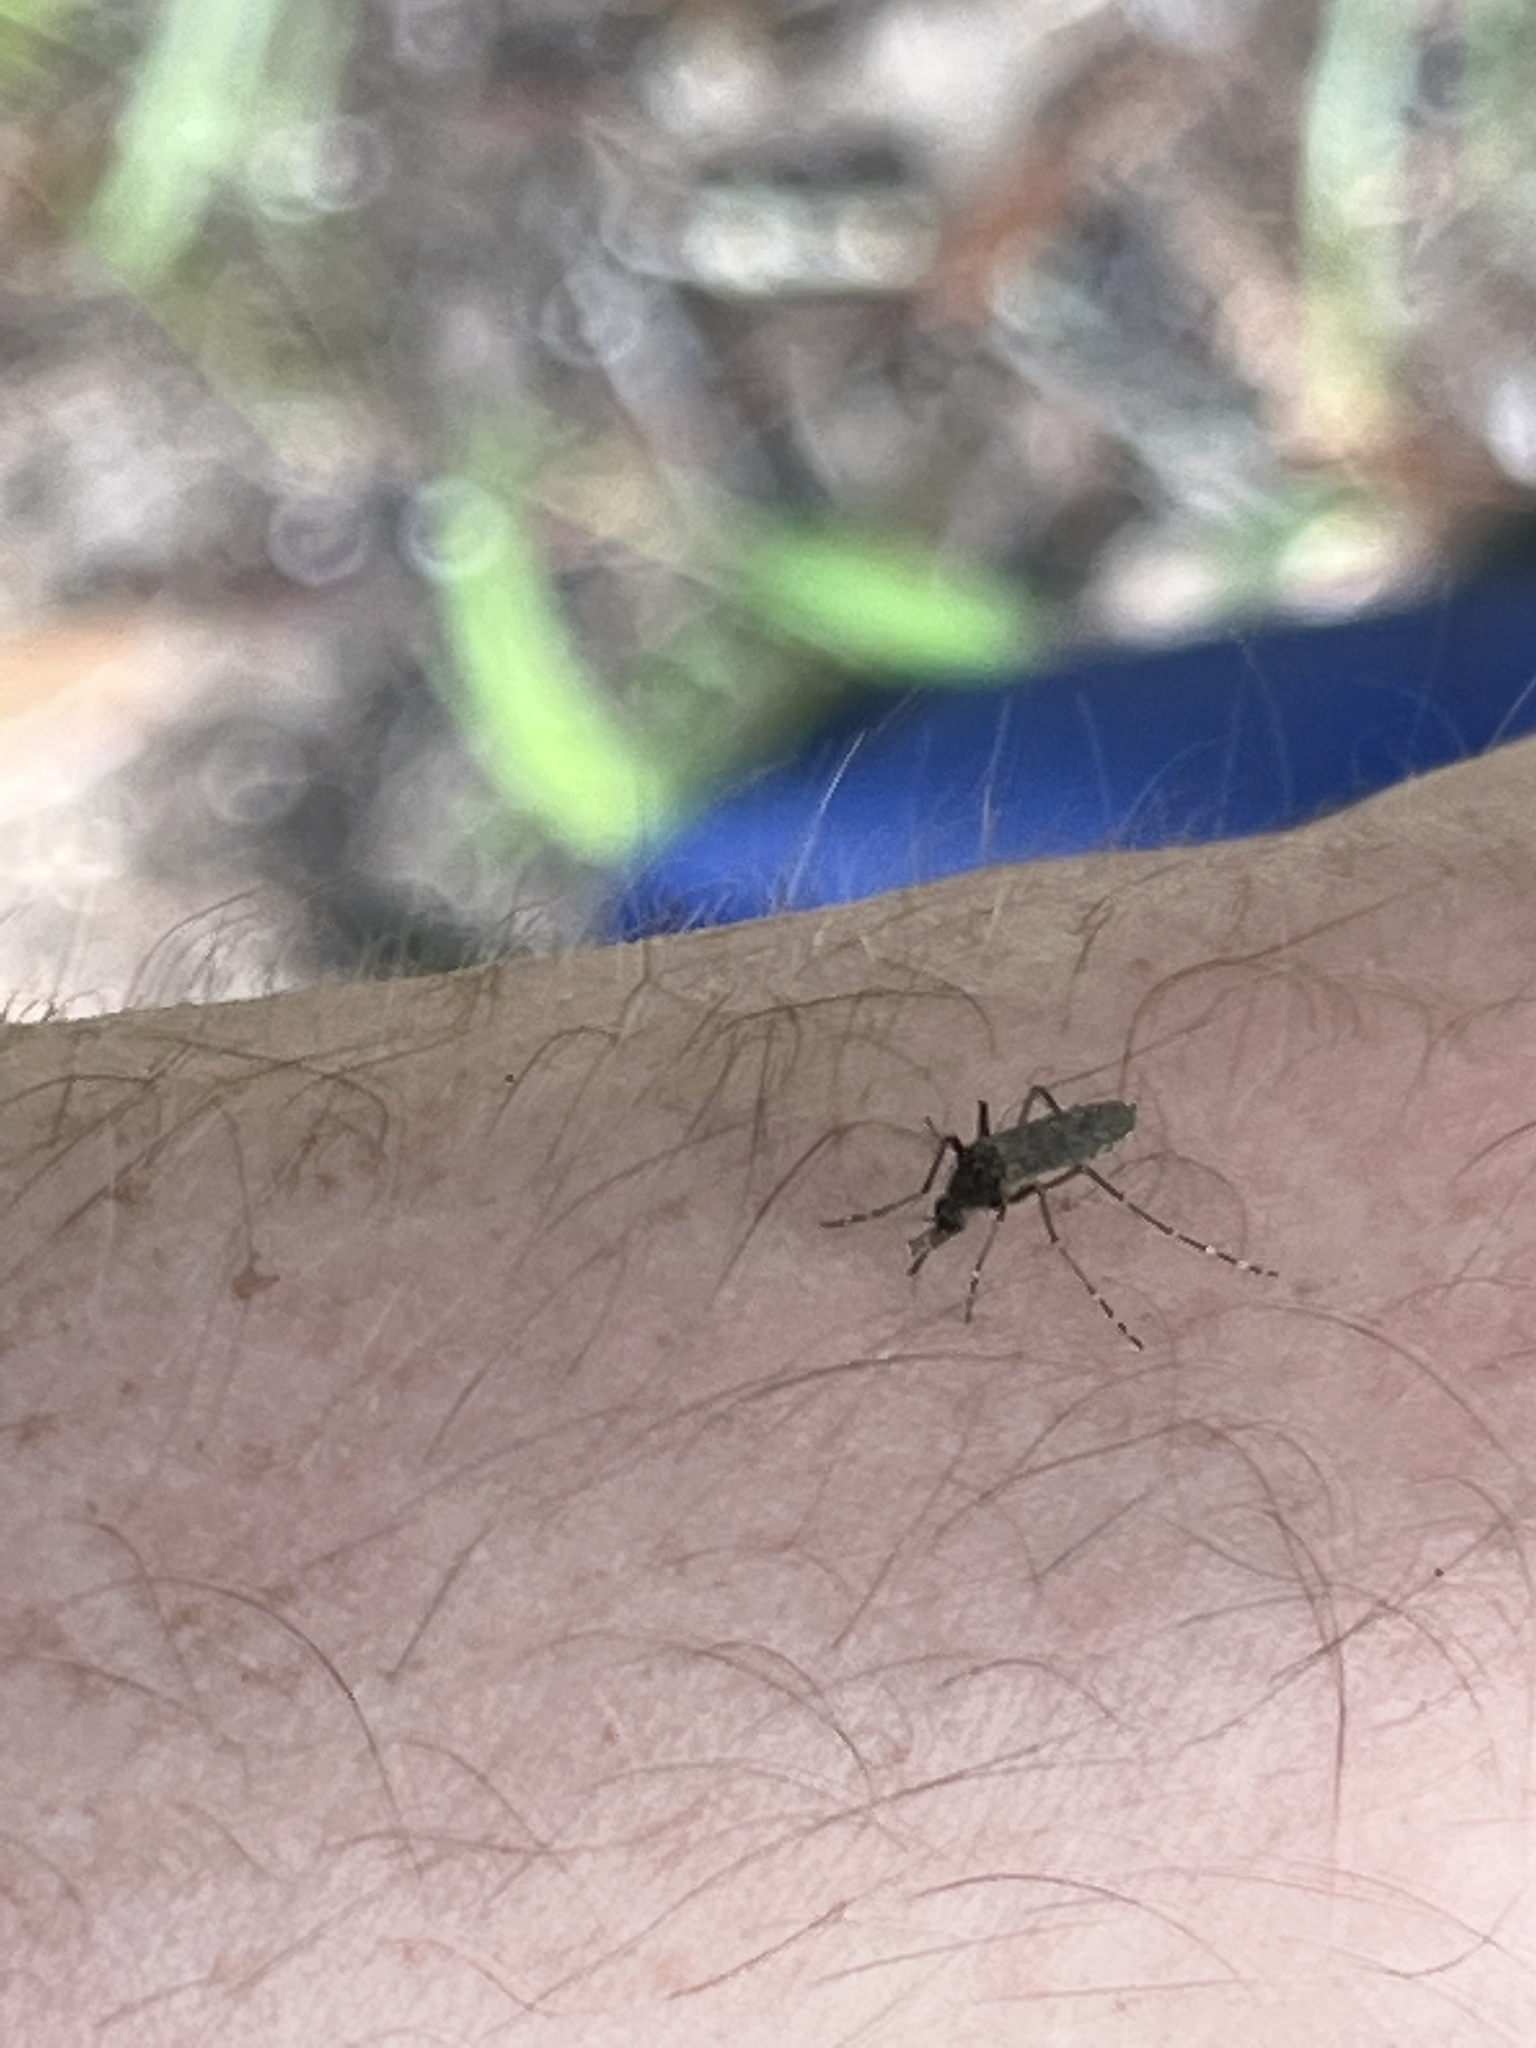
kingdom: Animalia
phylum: Arthropoda
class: Insecta
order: Diptera
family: Culicidae
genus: Mansonia
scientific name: Mansonia titillans
